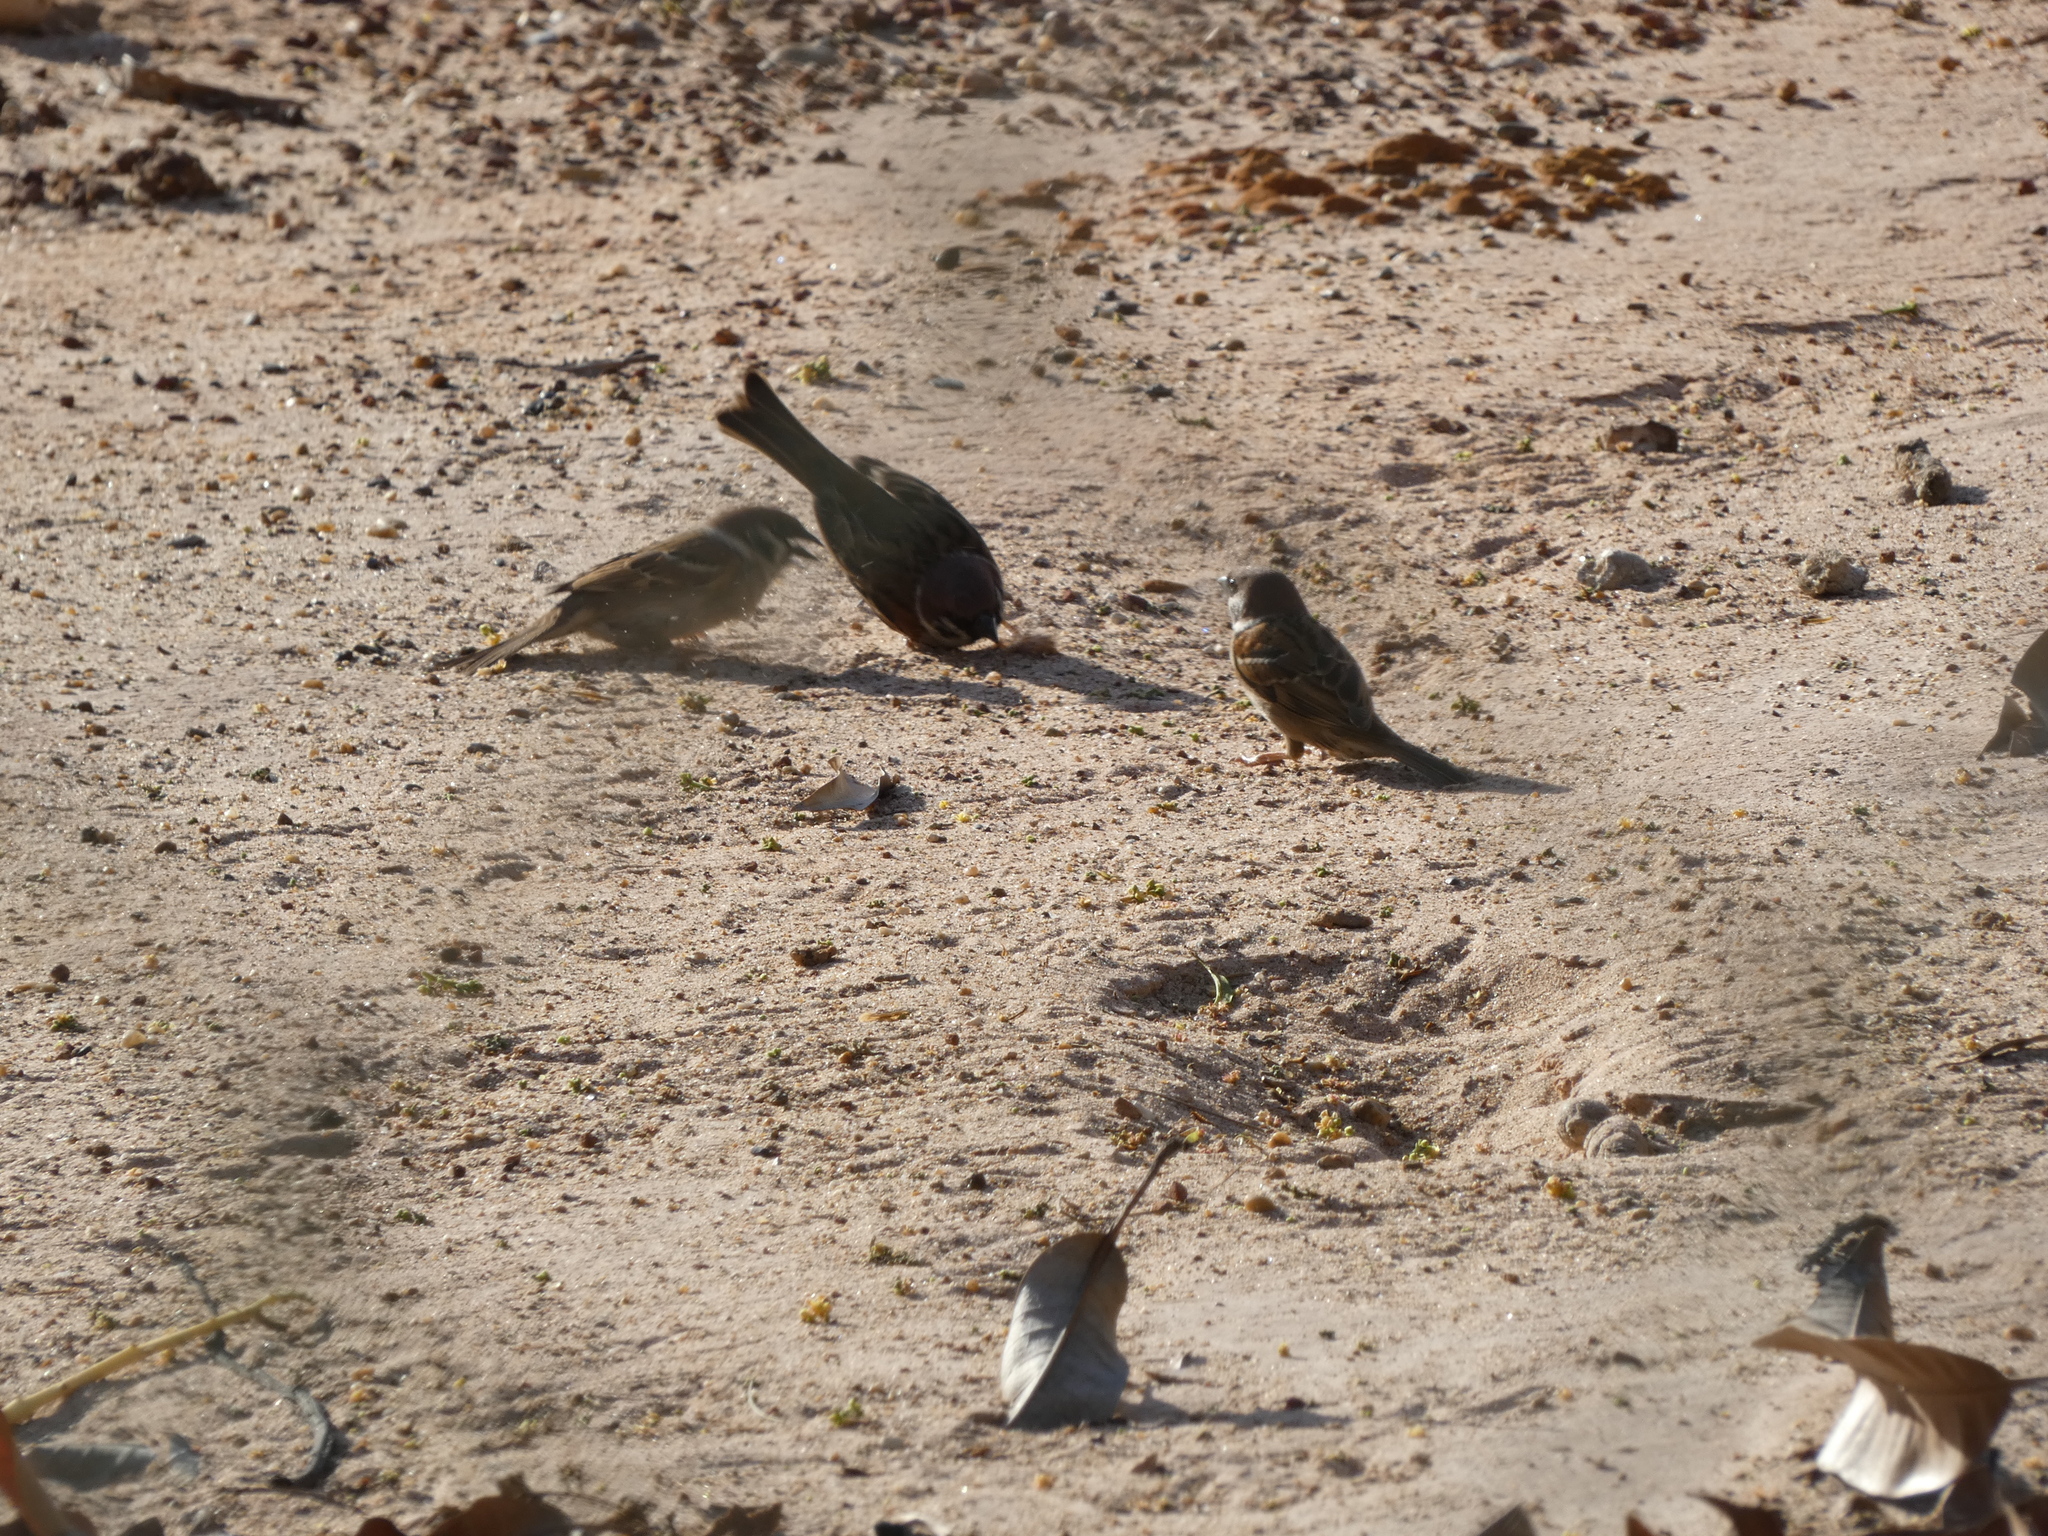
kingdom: Animalia
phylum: Chordata
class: Aves
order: Passeriformes
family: Passeridae
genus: Passer
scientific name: Passer montanus
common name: Eurasian tree sparrow
